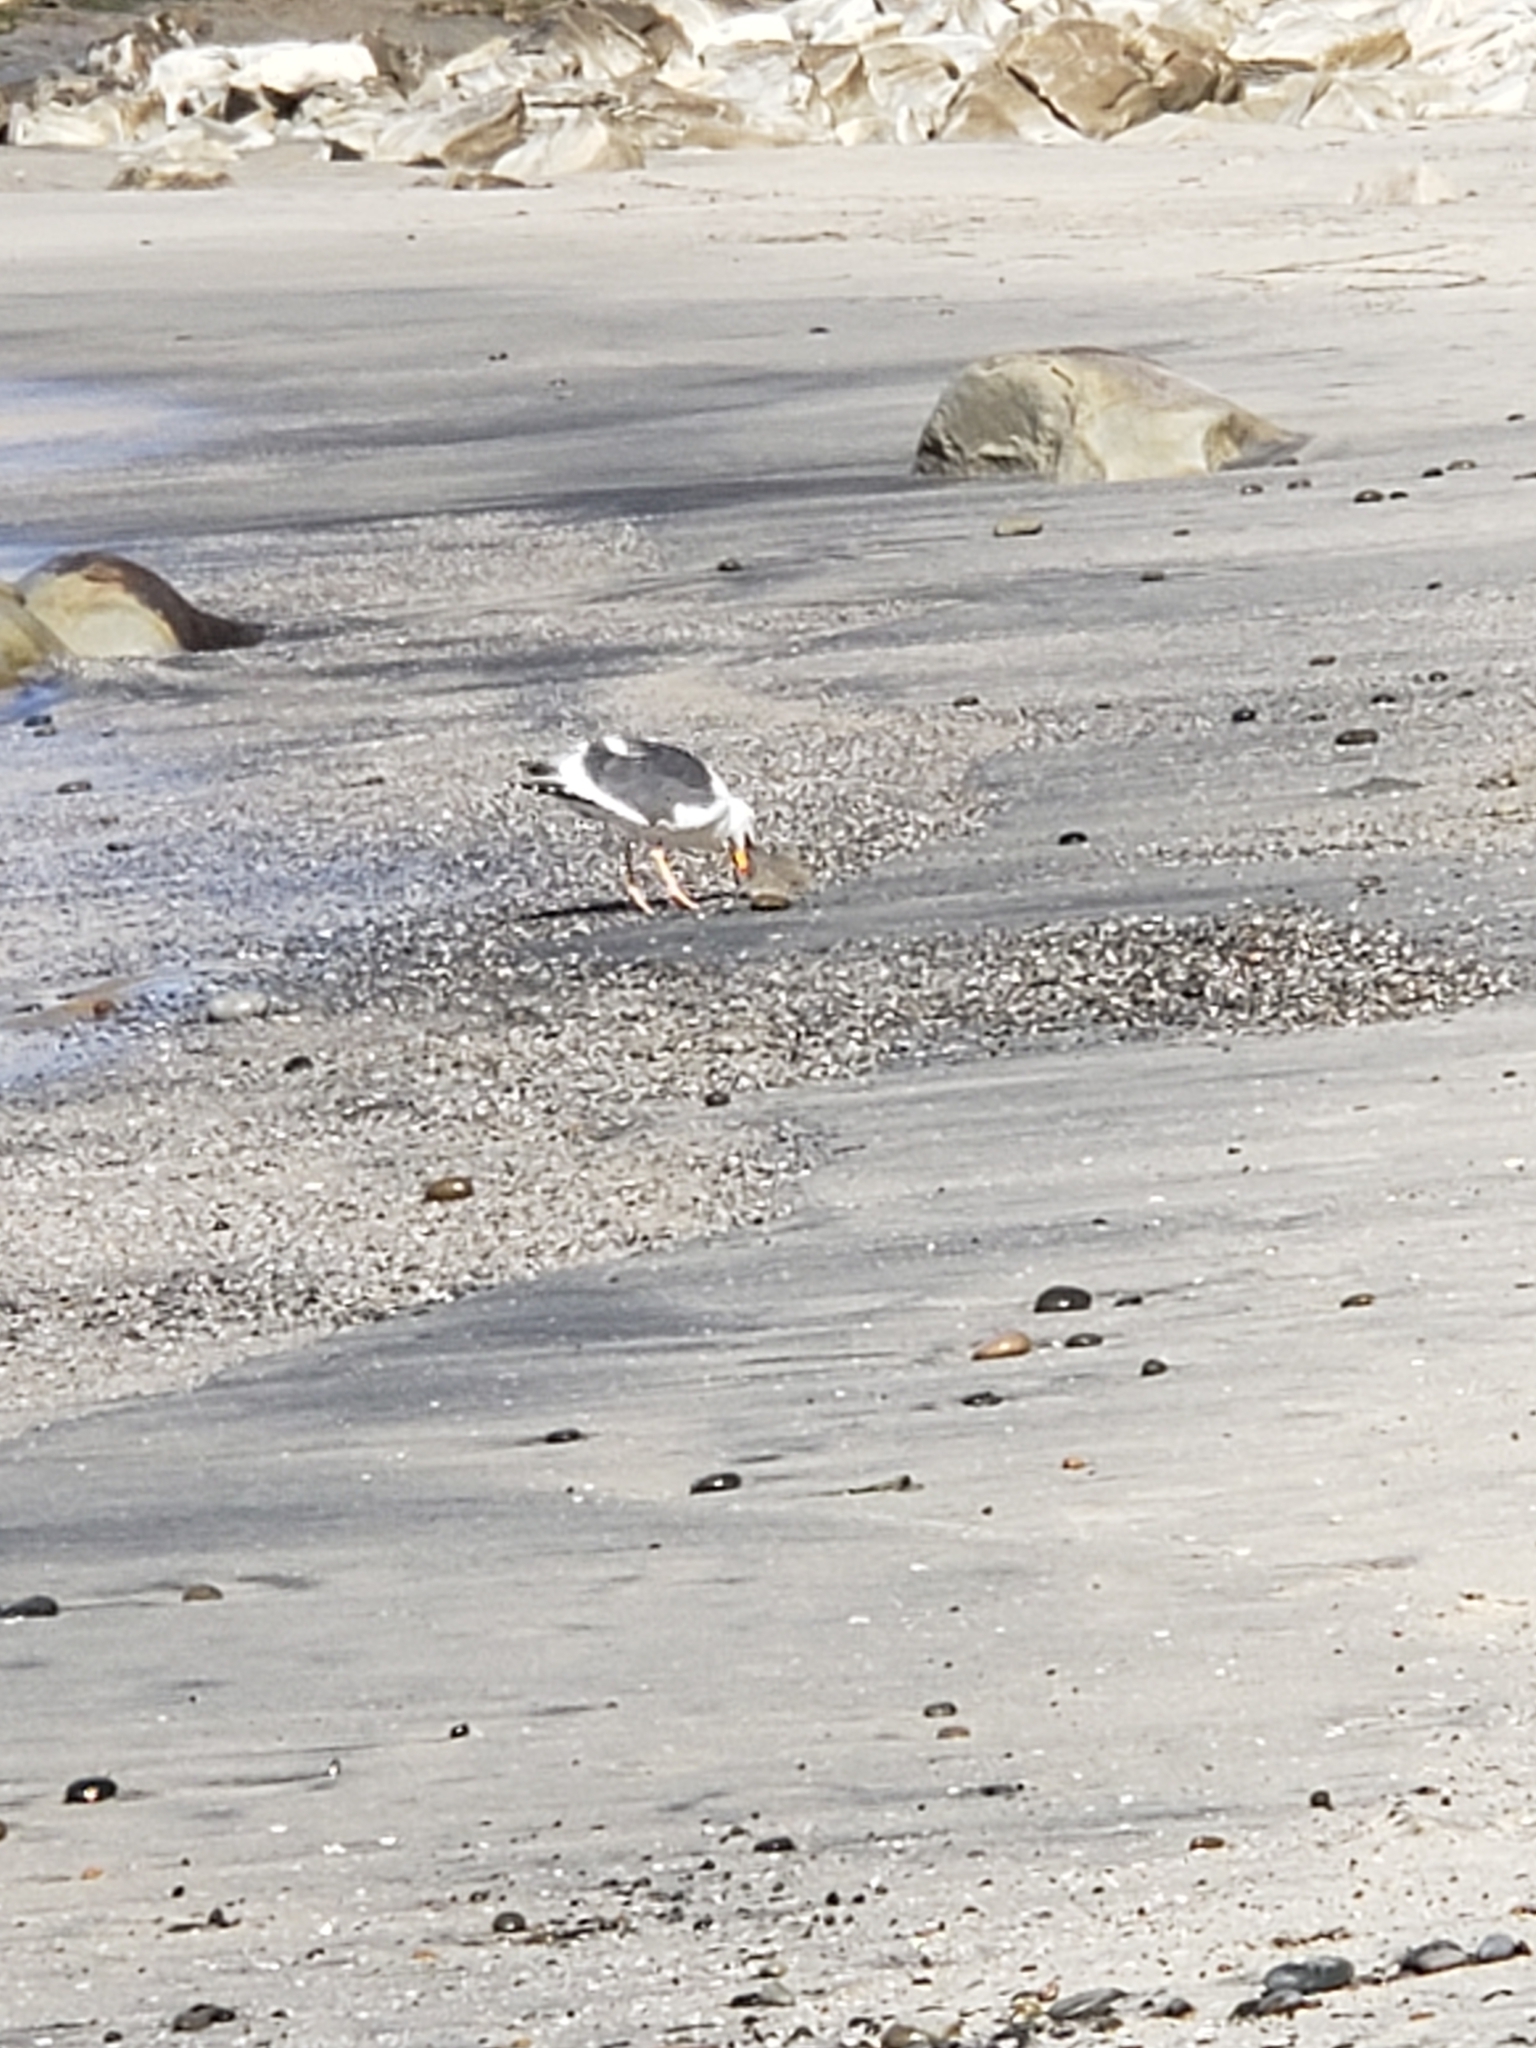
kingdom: Animalia
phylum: Chordata
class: Aves
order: Charadriiformes
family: Laridae
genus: Larus
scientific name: Larus occidentalis
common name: Western gull
